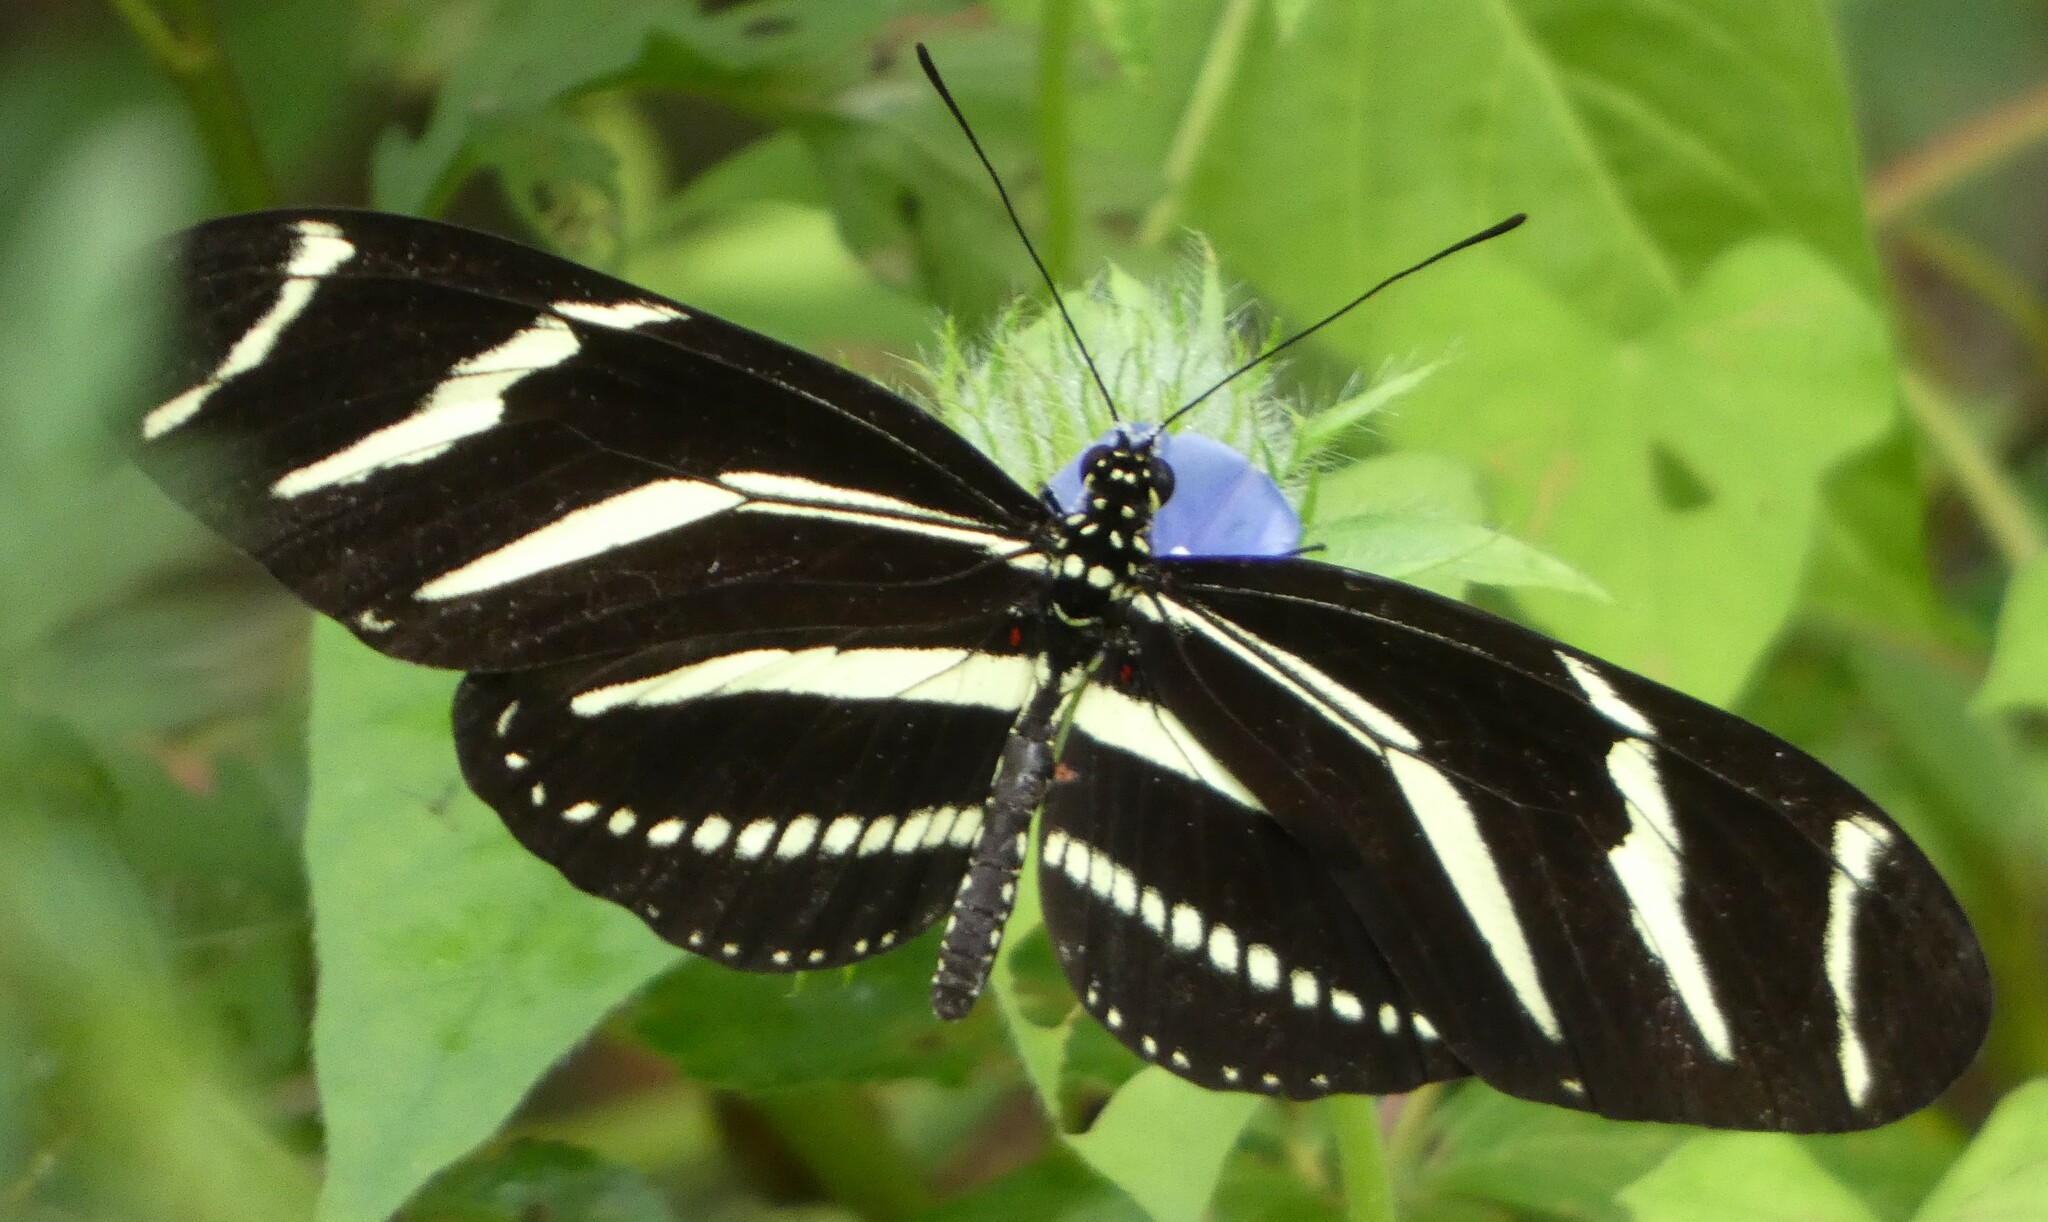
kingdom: Animalia
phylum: Arthropoda
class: Insecta
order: Lepidoptera
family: Nymphalidae
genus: Heliconius
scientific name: Heliconius charithonia
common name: Zebra long wing
